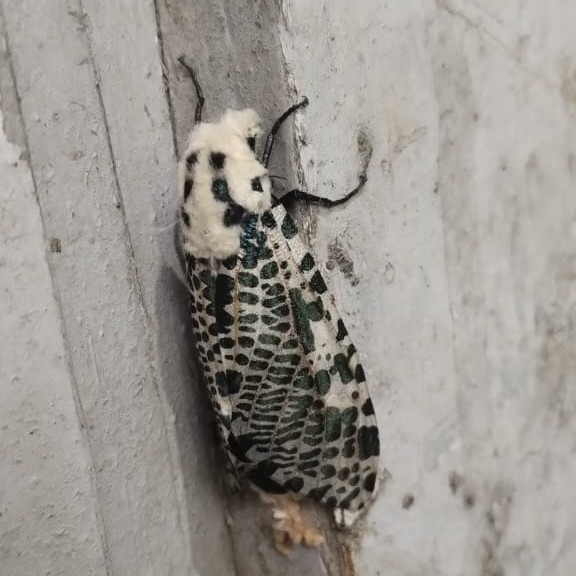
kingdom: Animalia
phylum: Arthropoda
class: Insecta
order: Lepidoptera
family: Cossidae
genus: Zeuzera
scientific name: Zeuzera multistrigata
